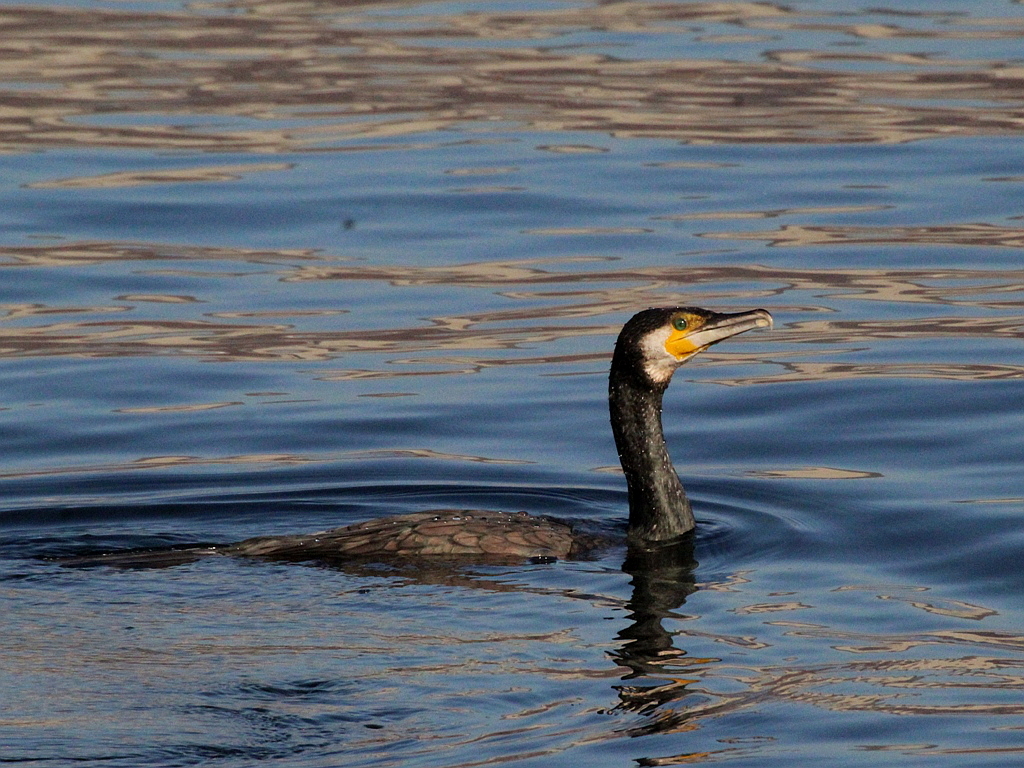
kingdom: Animalia
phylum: Chordata
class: Aves
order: Suliformes
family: Phalacrocoracidae
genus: Phalacrocorax
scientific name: Phalacrocorax carbo
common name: Great cormorant
